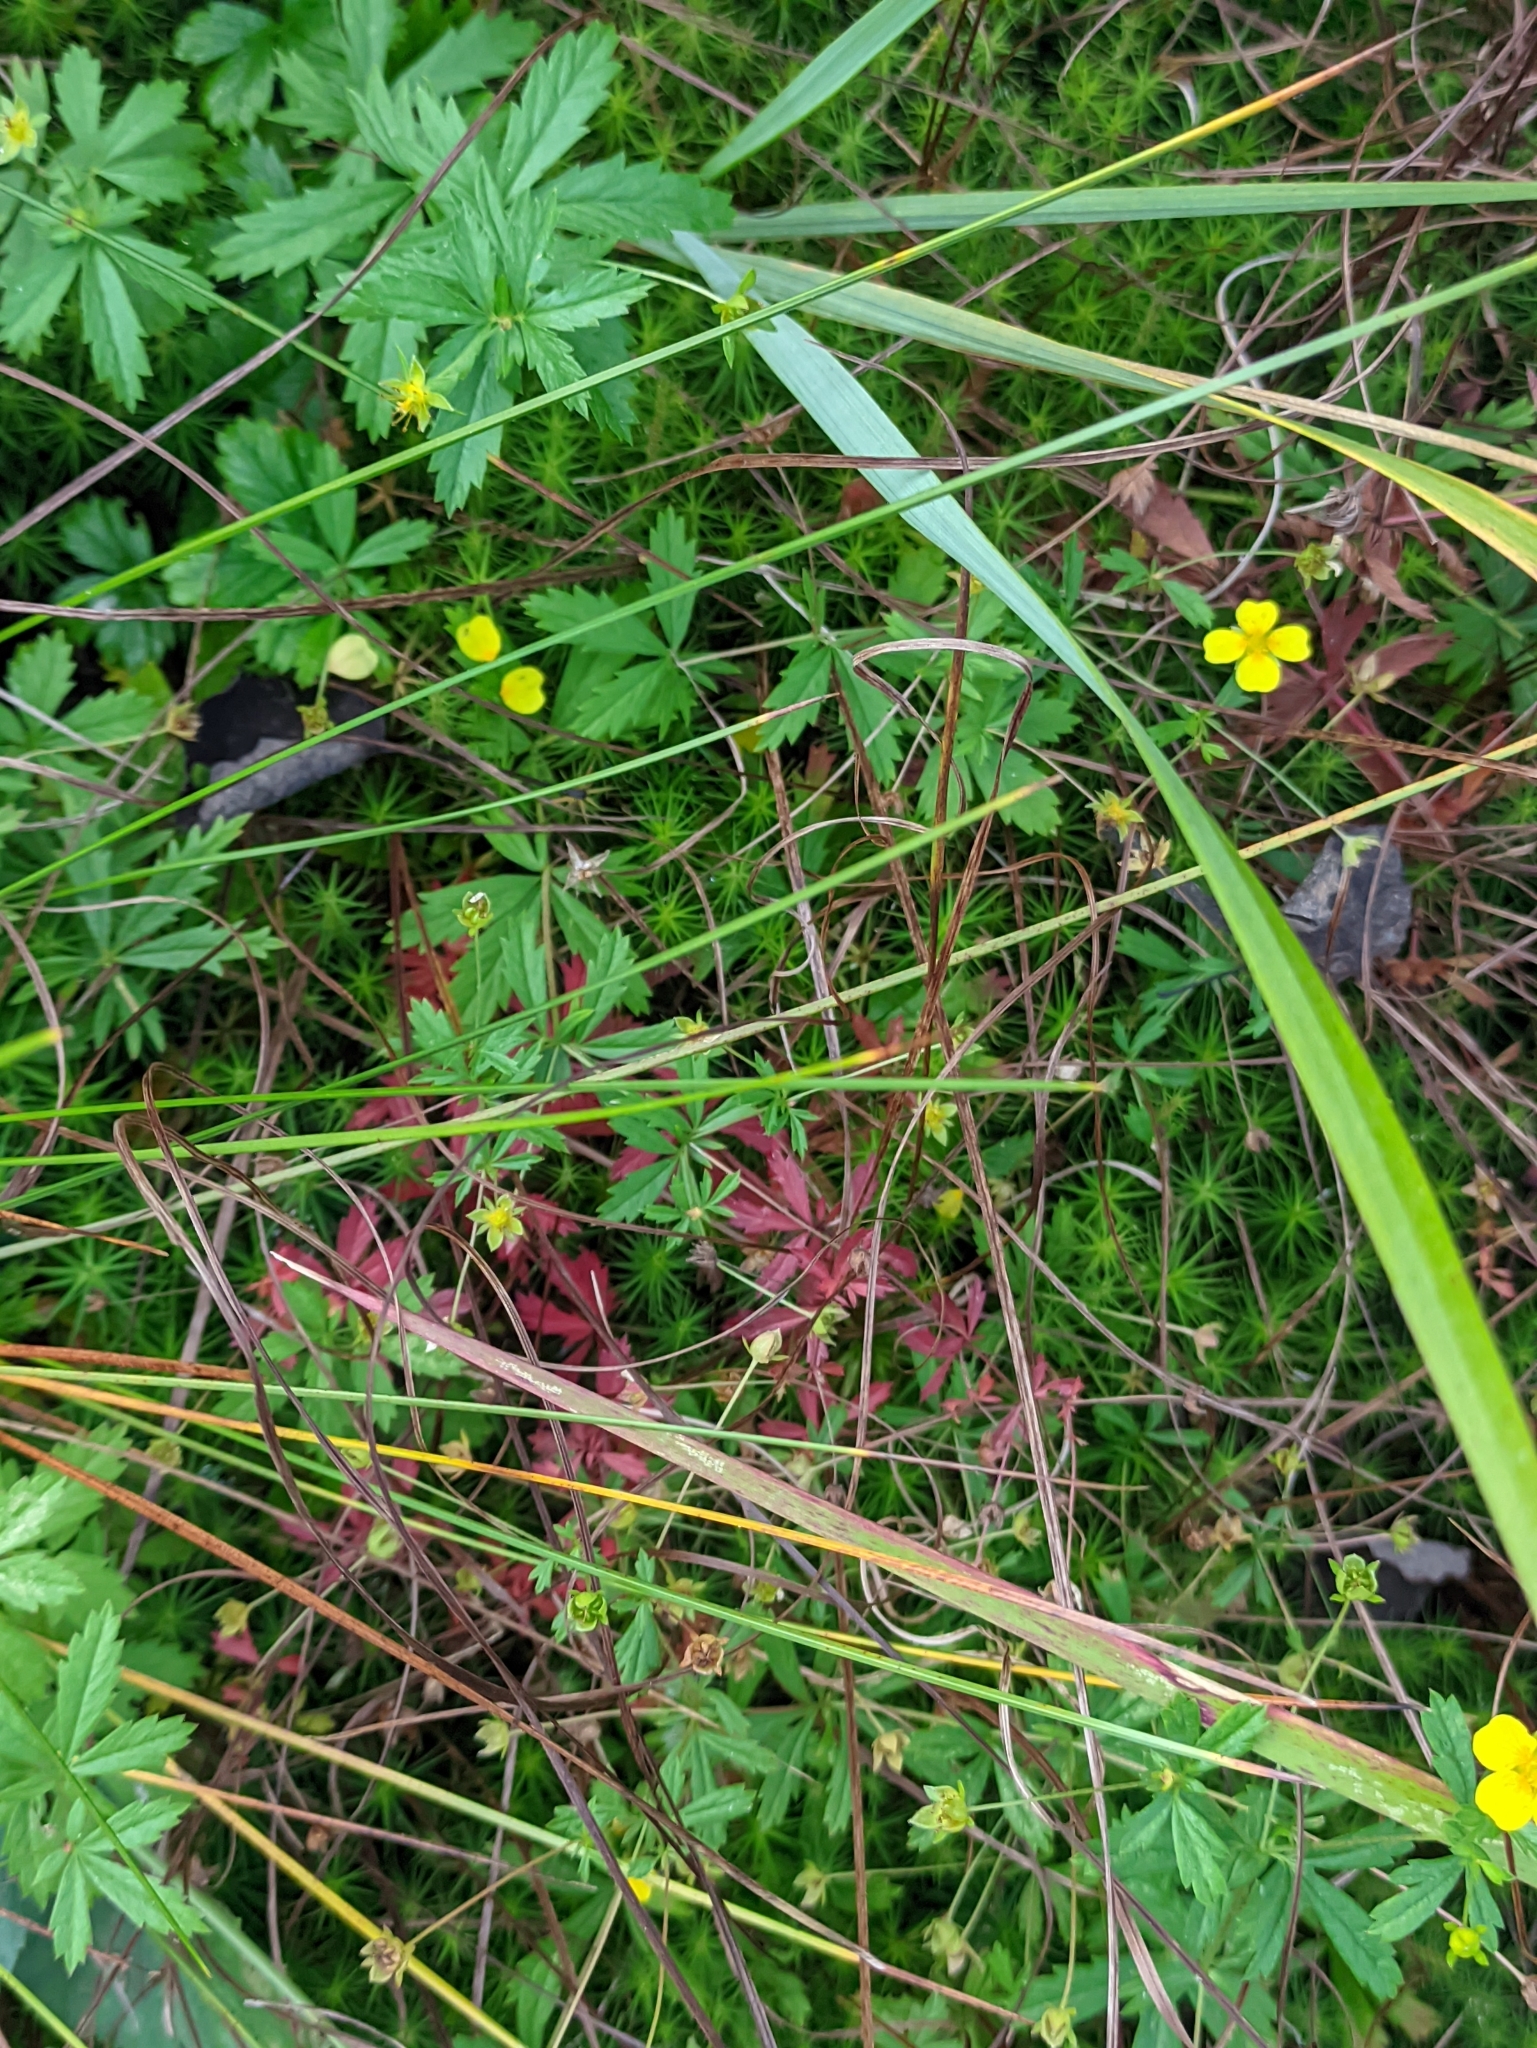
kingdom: Plantae
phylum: Tracheophyta
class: Magnoliopsida
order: Rosales
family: Rosaceae
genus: Potentilla
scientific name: Potentilla erecta
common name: Tormentil
